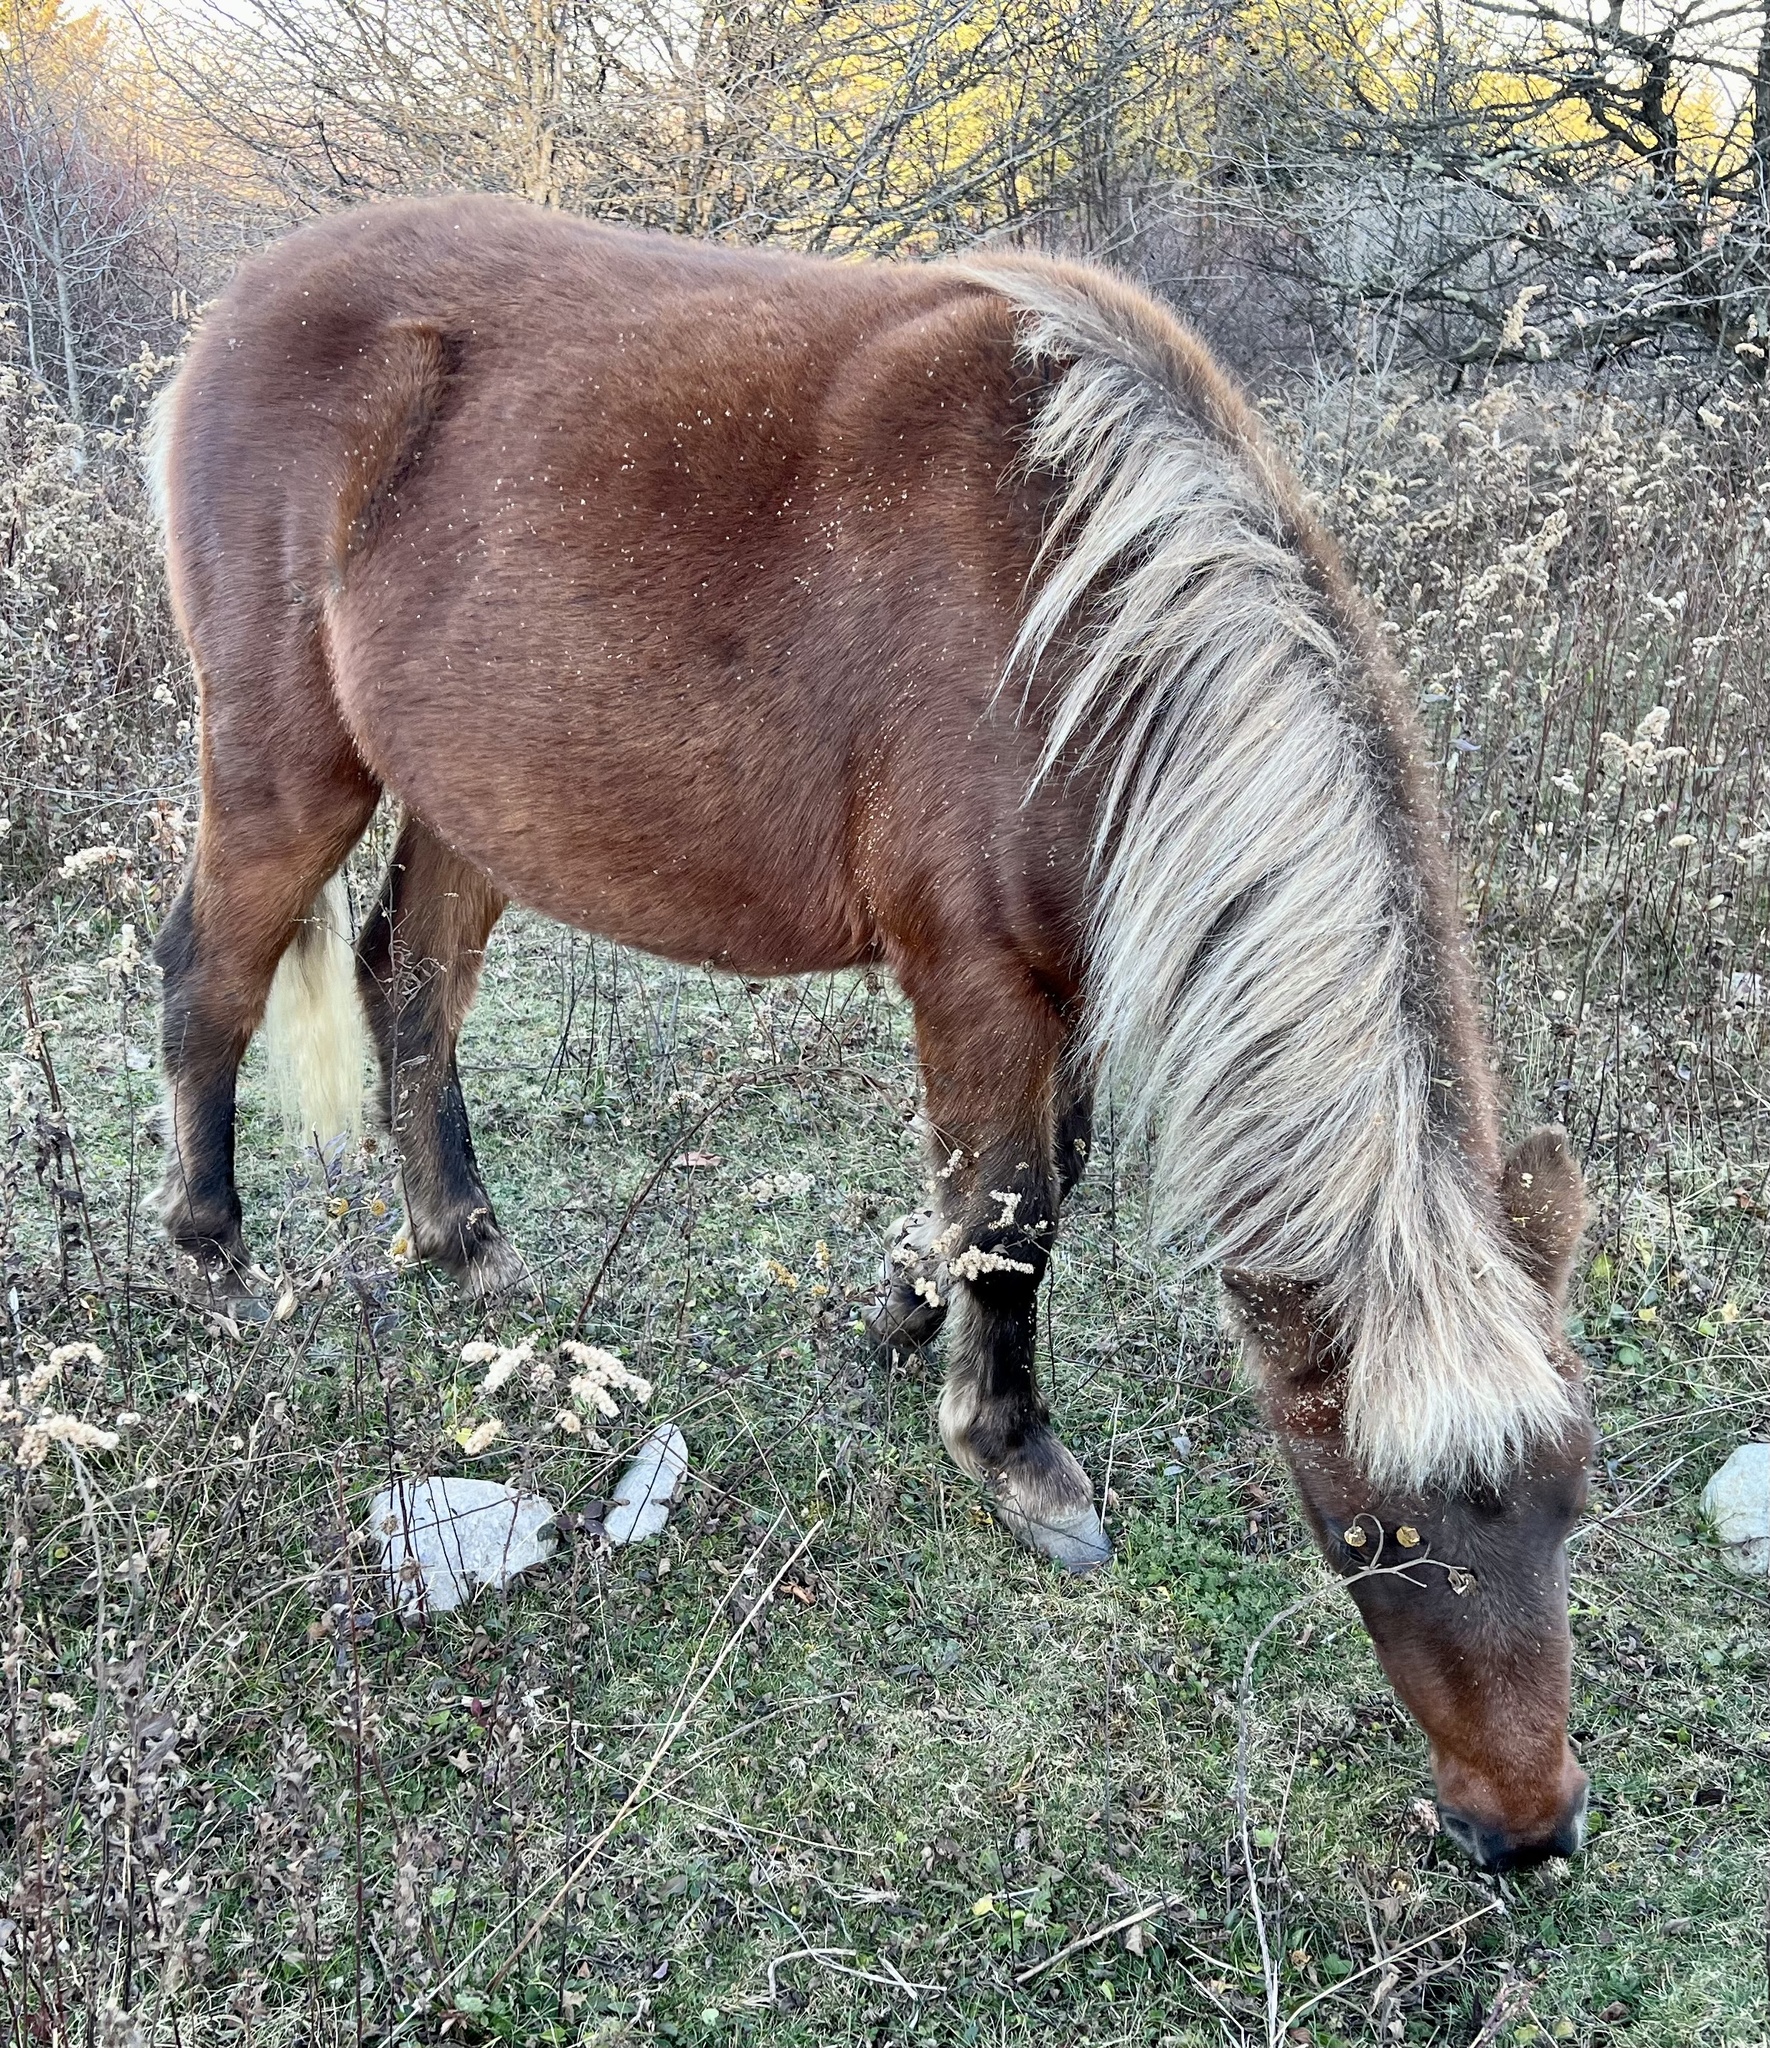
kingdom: Animalia
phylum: Chordata
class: Mammalia
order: Perissodactyla
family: Equidae
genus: Equus
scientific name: Equus caballus
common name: Horse
